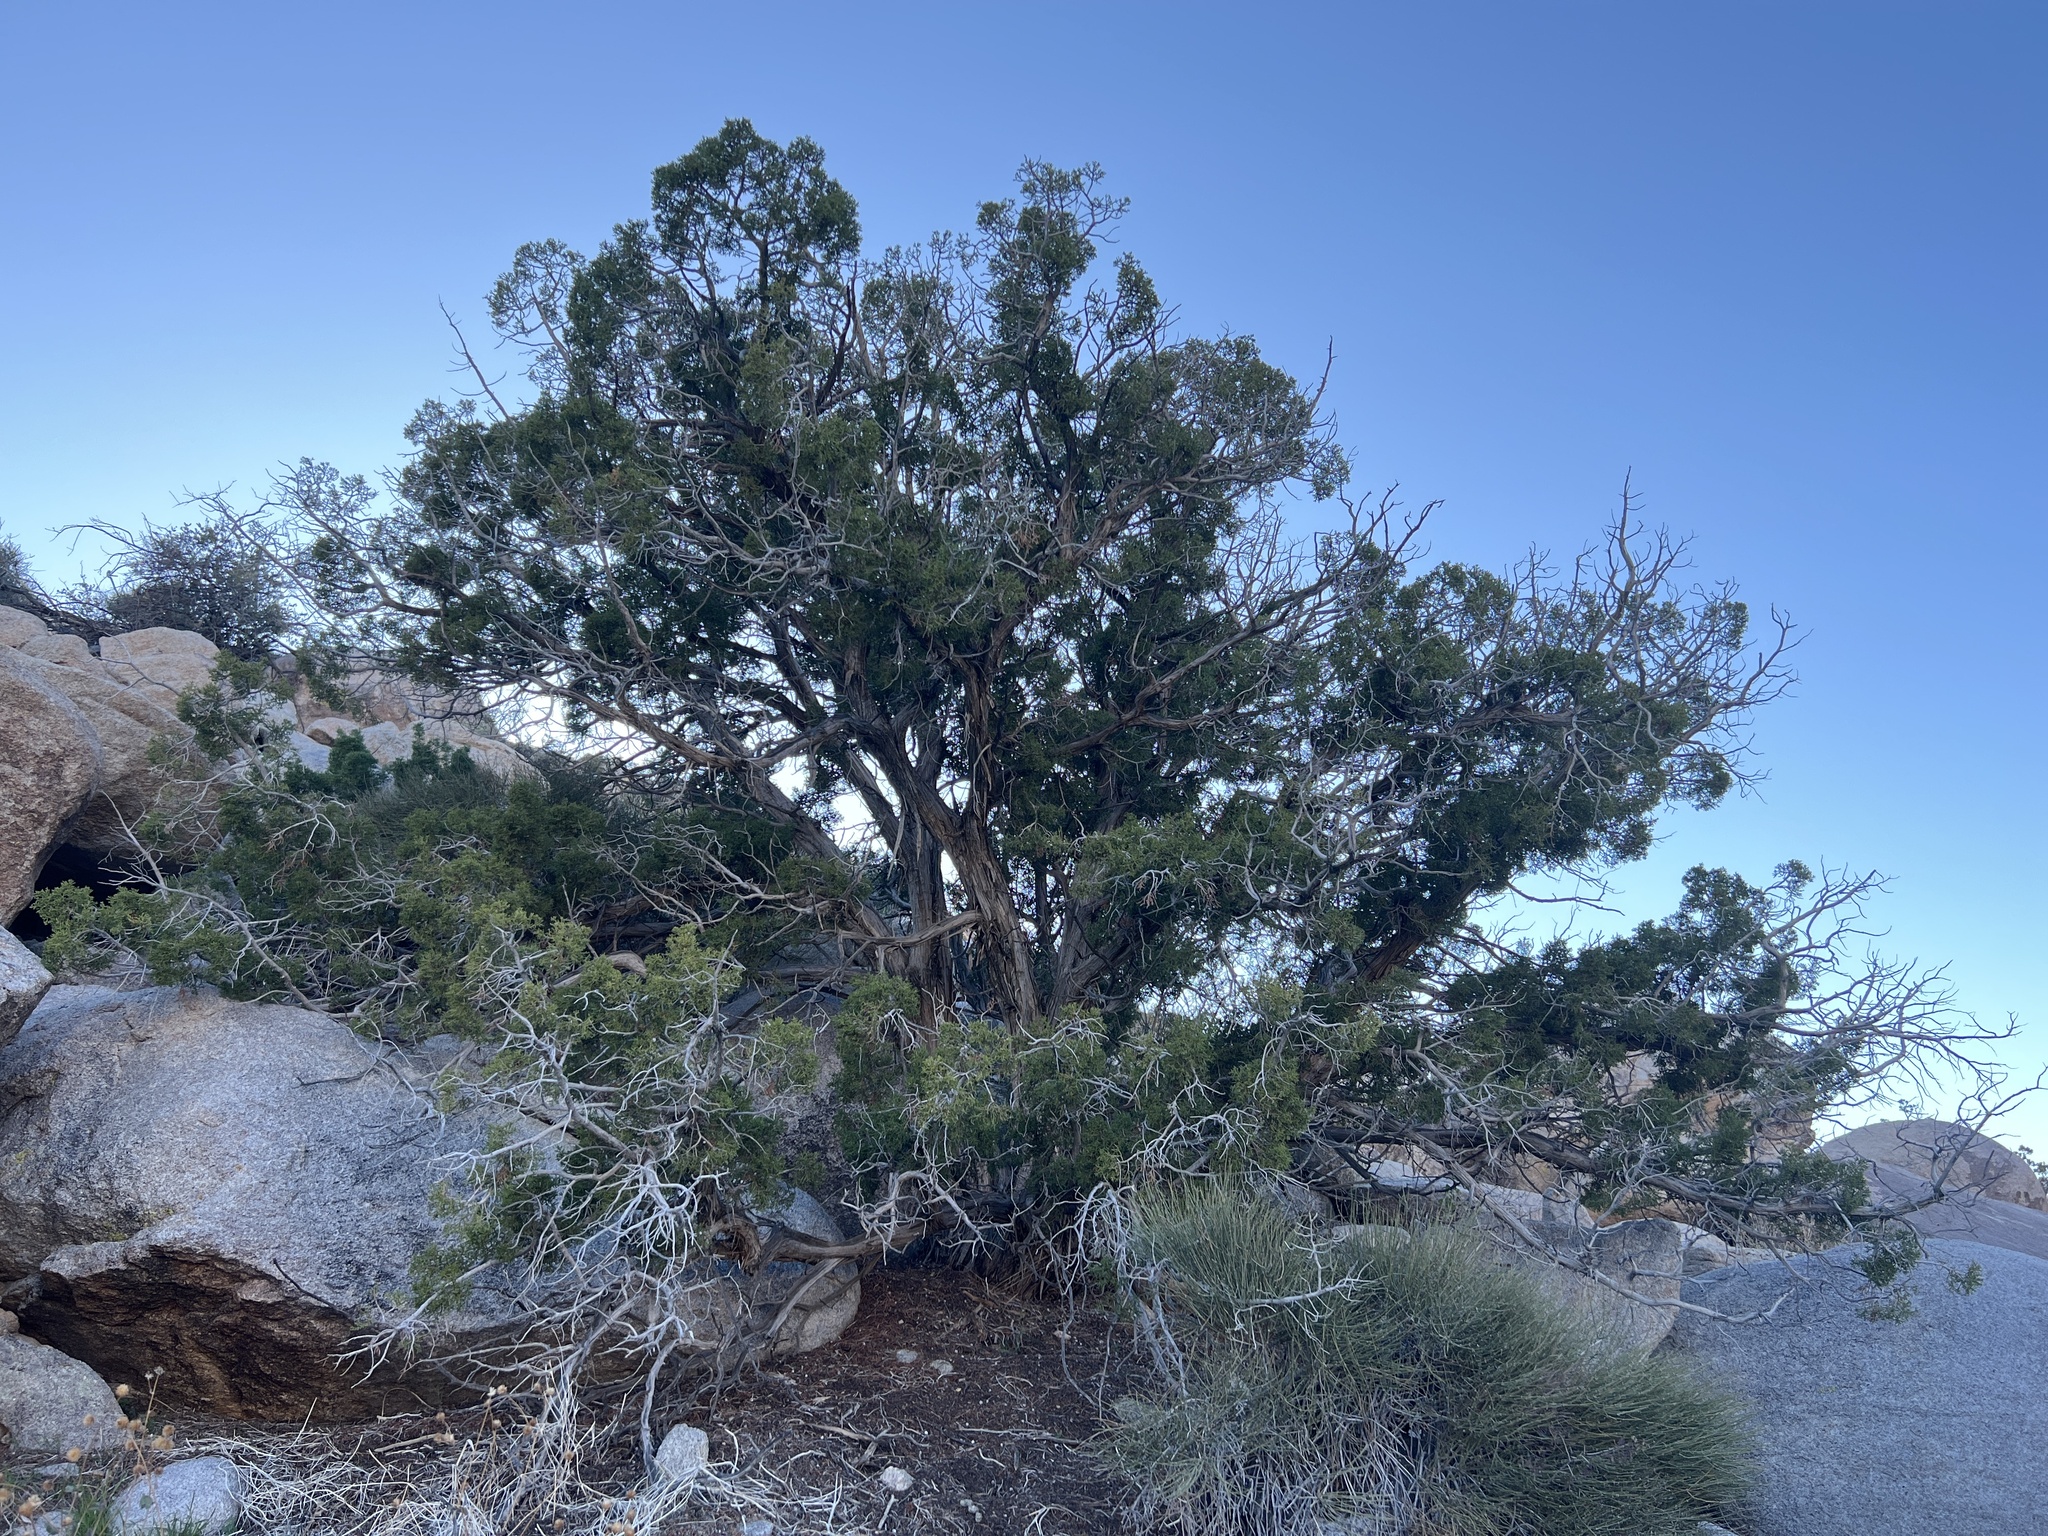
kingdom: Plantae
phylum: Tracheophyta
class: Pinopsida
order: Pinales
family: Cupressaceae
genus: Juniperus
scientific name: Juniperus californica
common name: California juniper
